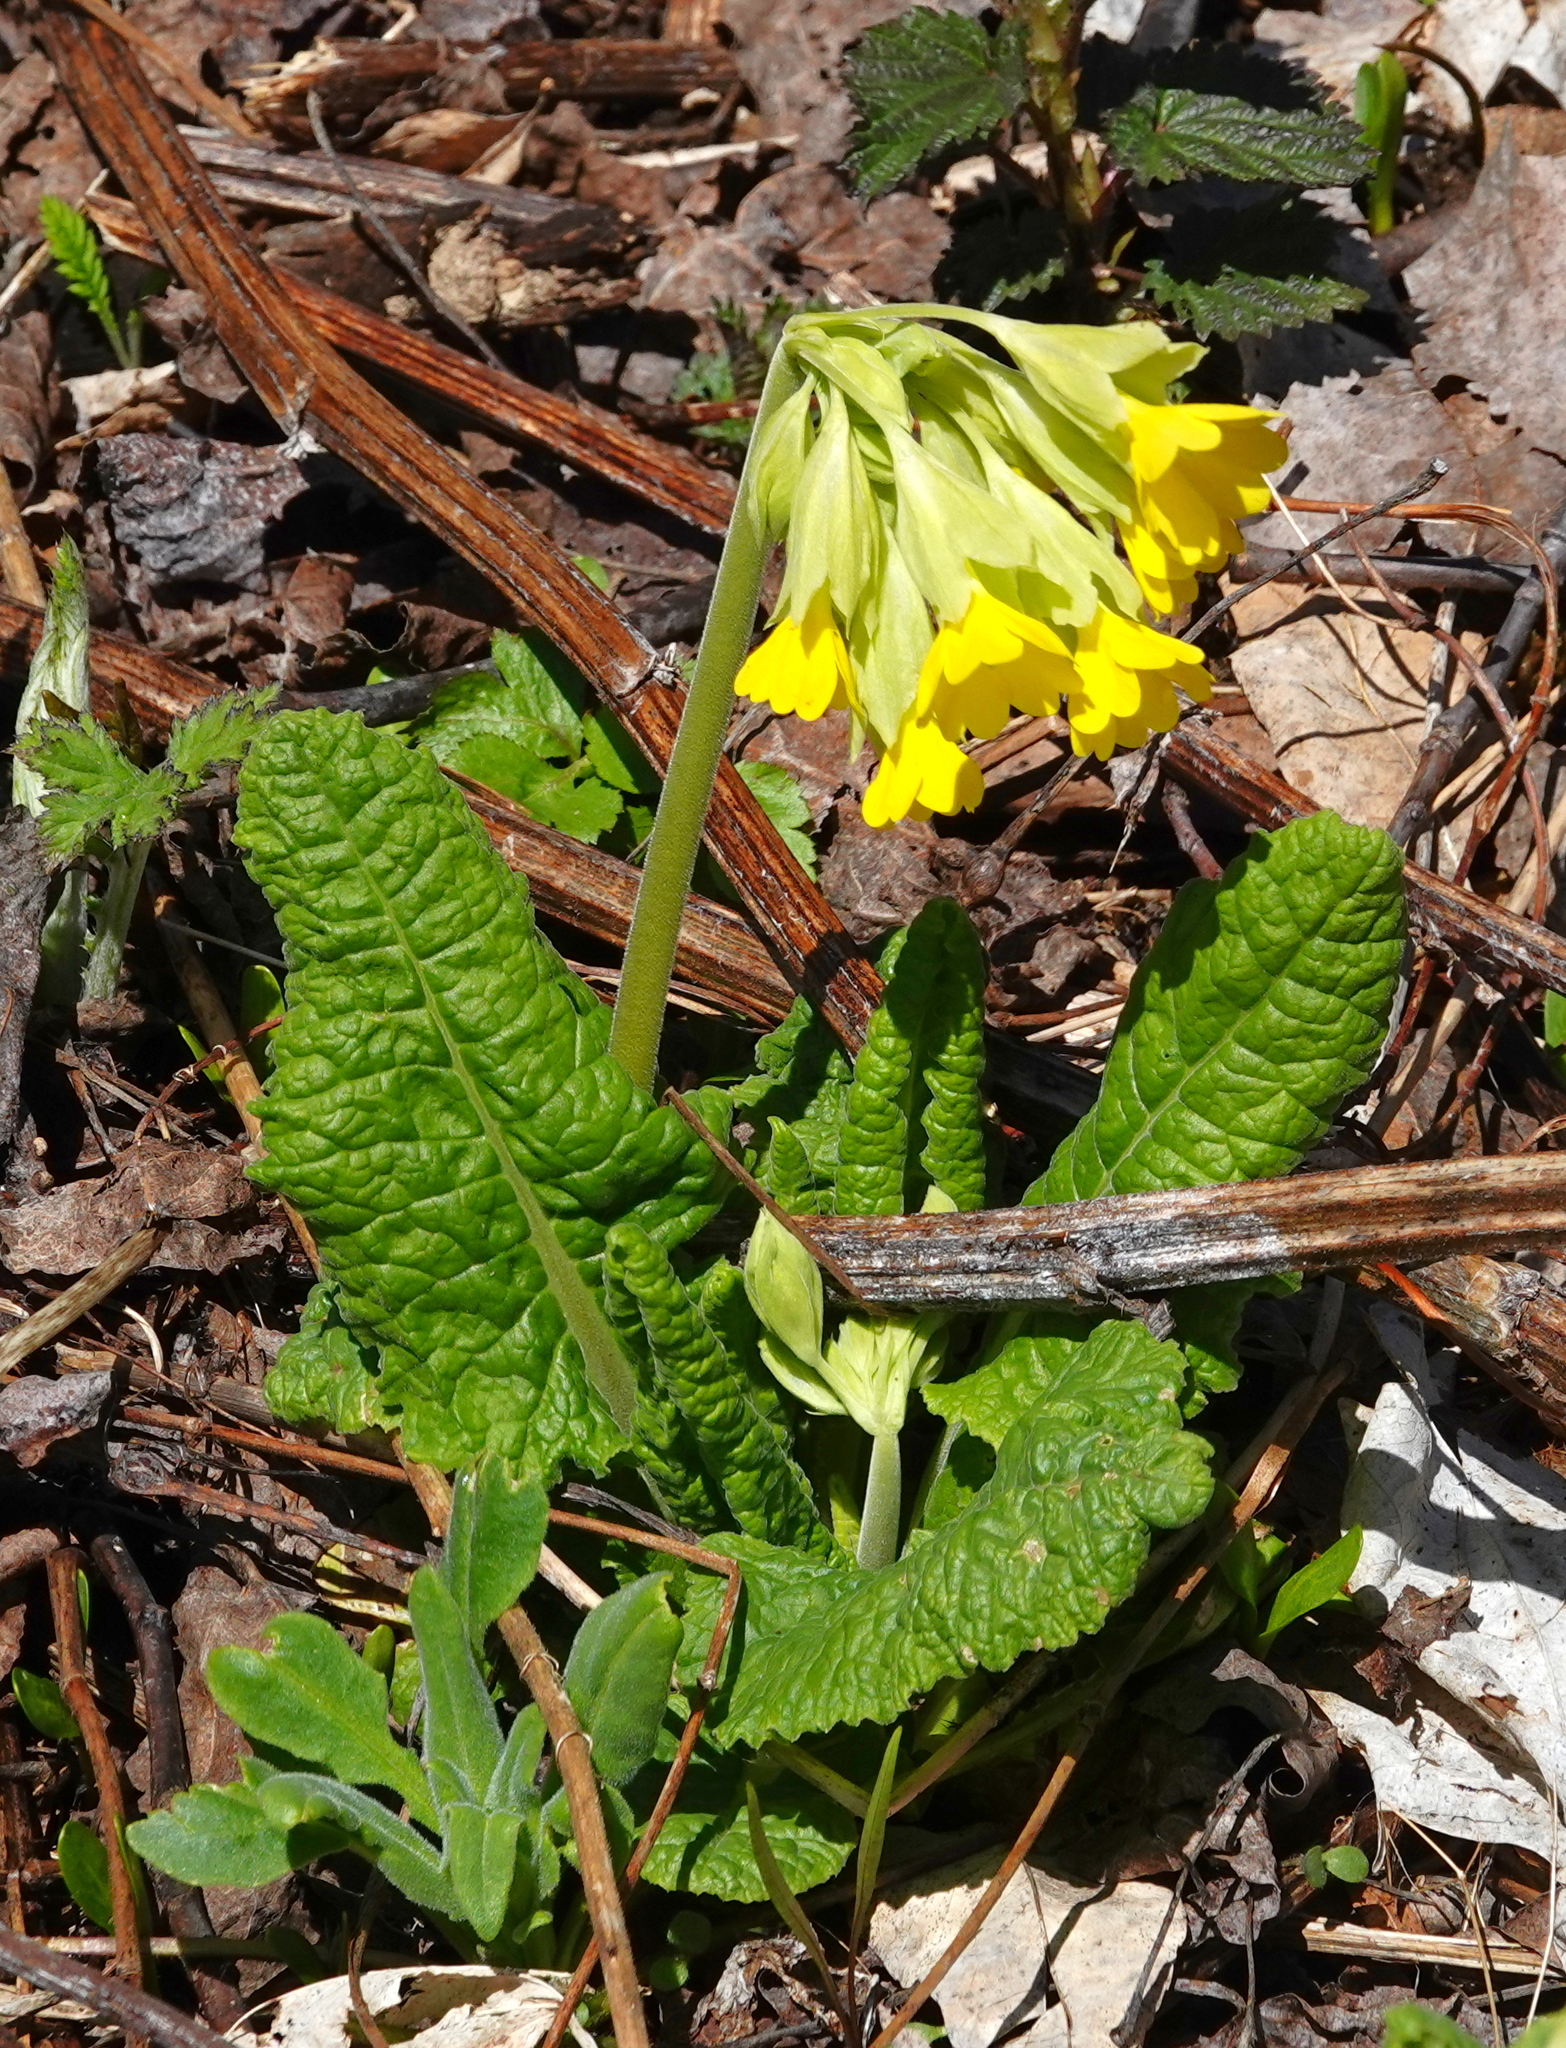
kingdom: Plantae
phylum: Tracheophyta
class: Magnoliopsida
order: Ericales
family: Primulaceae
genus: Primula
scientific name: Primula veris
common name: Cowslip
